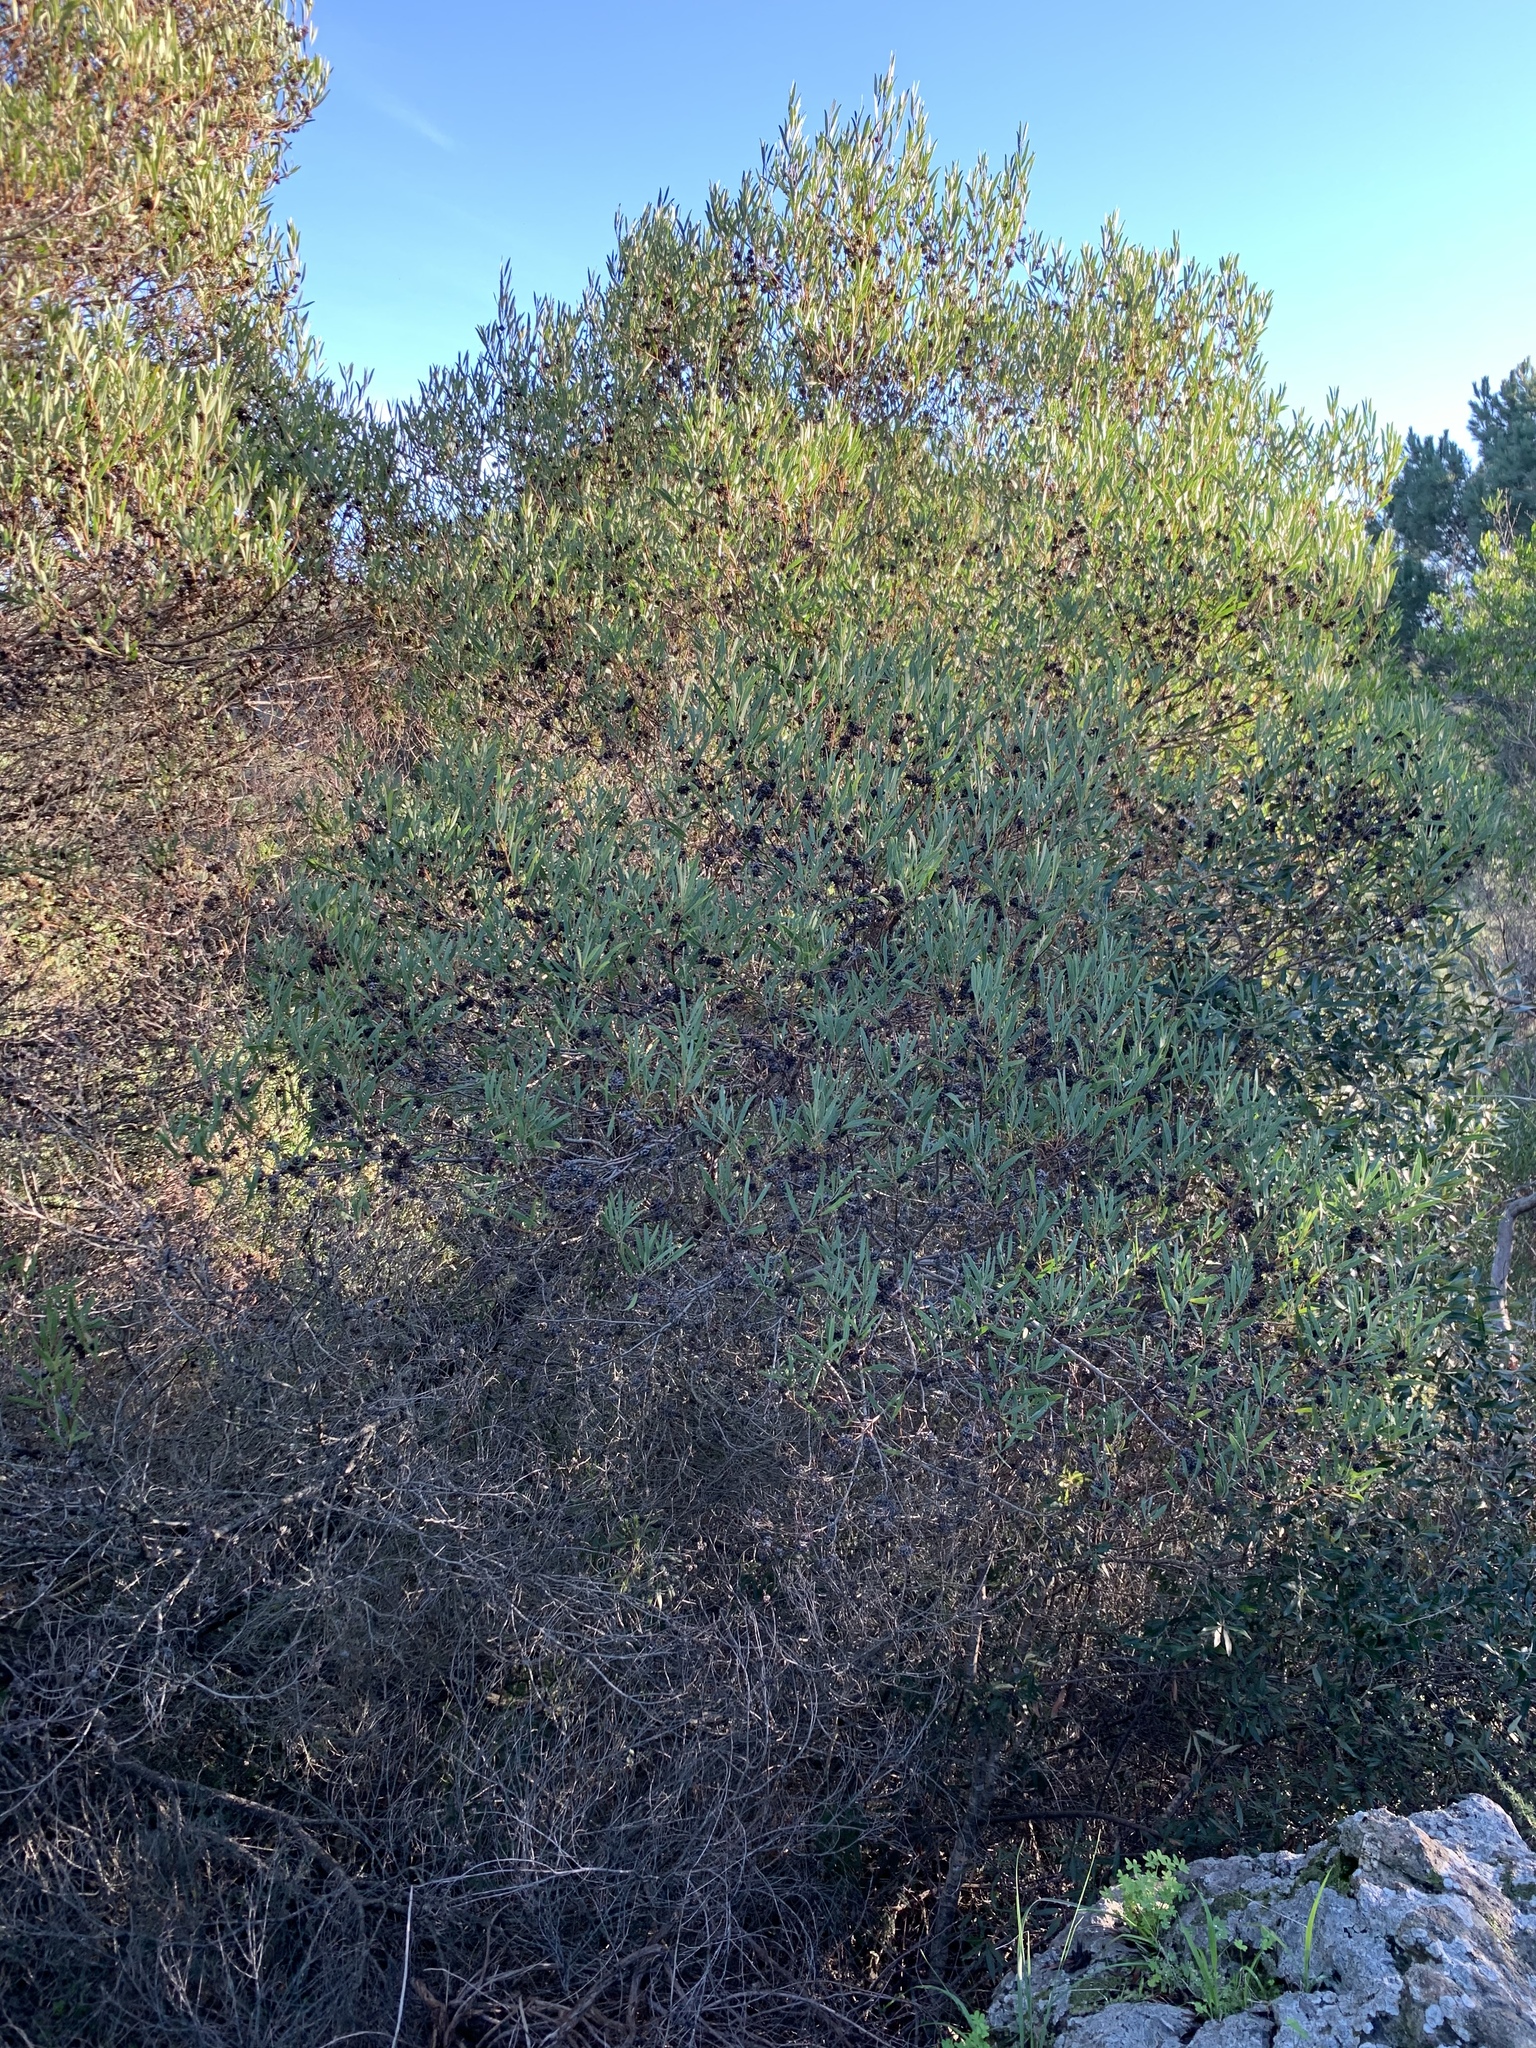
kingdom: Plantae
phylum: Tracheophyta
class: Magnoliopsida
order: Fabales
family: Fabaceae
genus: Acacia
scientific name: Acacia cyclops
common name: Coastal wattle
